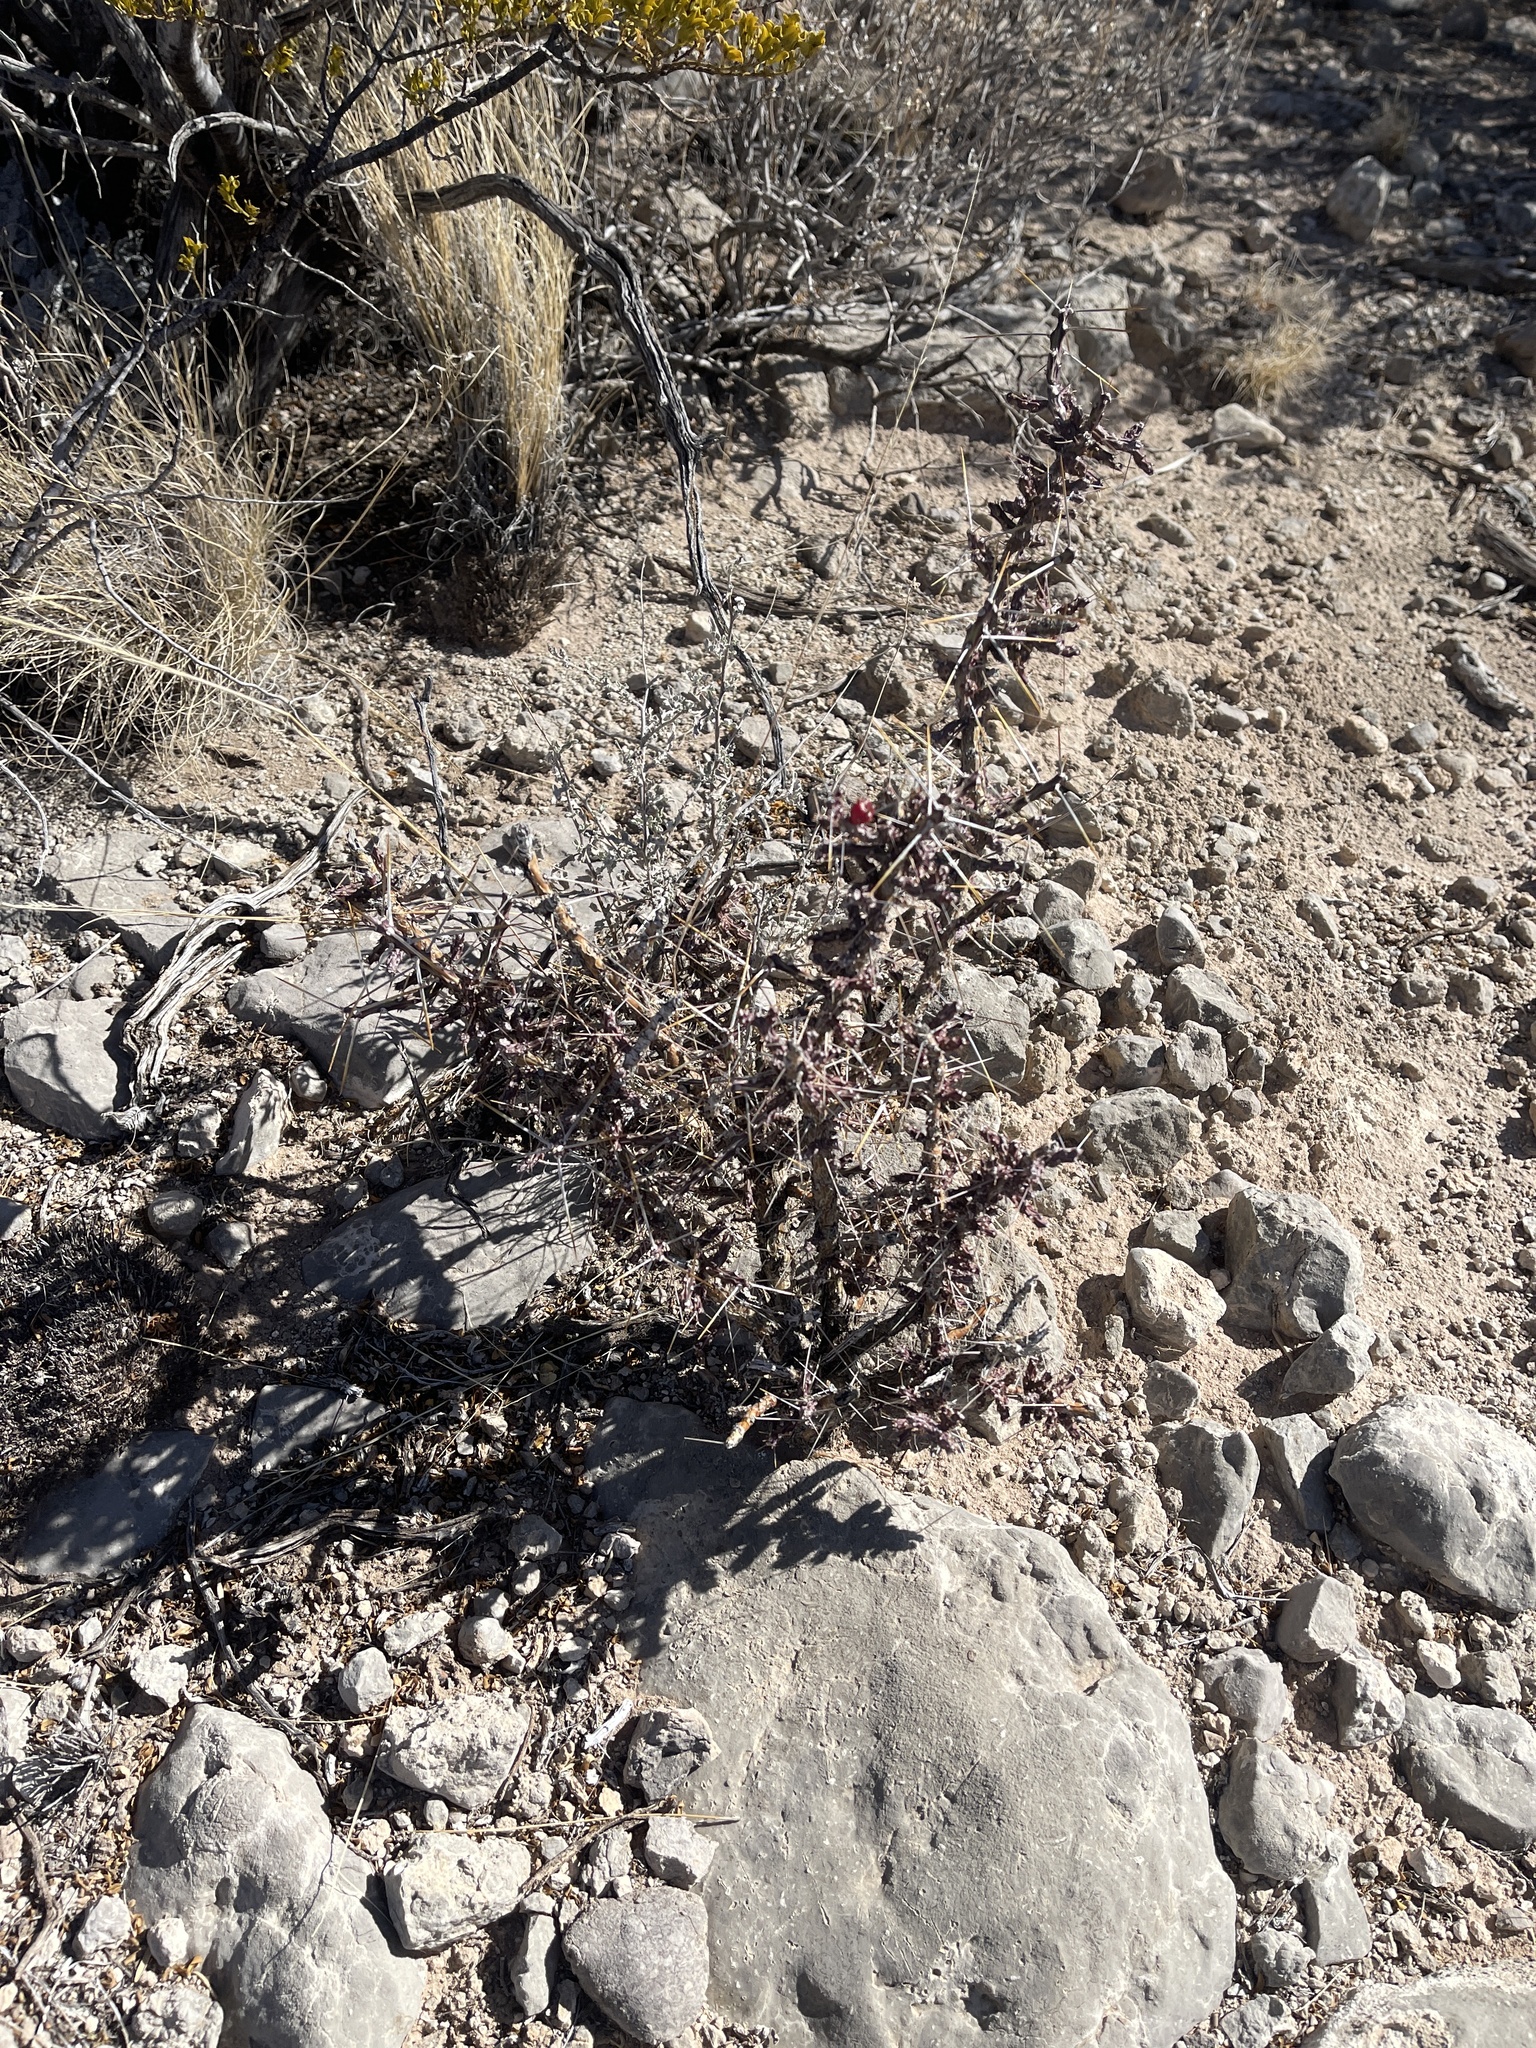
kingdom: Plantae
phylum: Tracheophyta
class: Magnoliopsida
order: Caryophyllales
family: Cactaceae
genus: Cylindropuntia
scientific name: Cylindropuntia leptocaulis
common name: Christmas cactus
